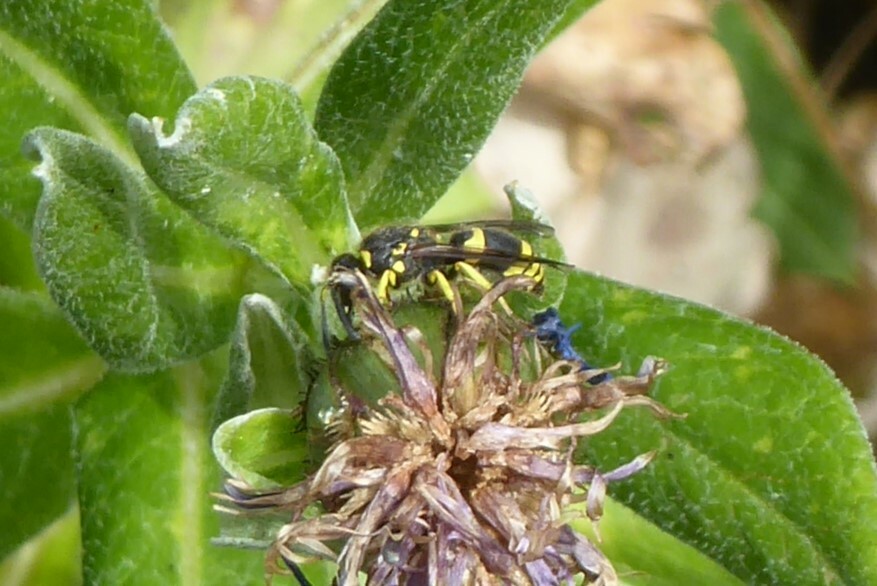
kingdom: Animalia
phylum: Arthropoda
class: Insecta
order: Hymenoptera
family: Vespidae
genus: Ancistrocerus
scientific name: Ancistrocerus gazella
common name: European tube wasp
